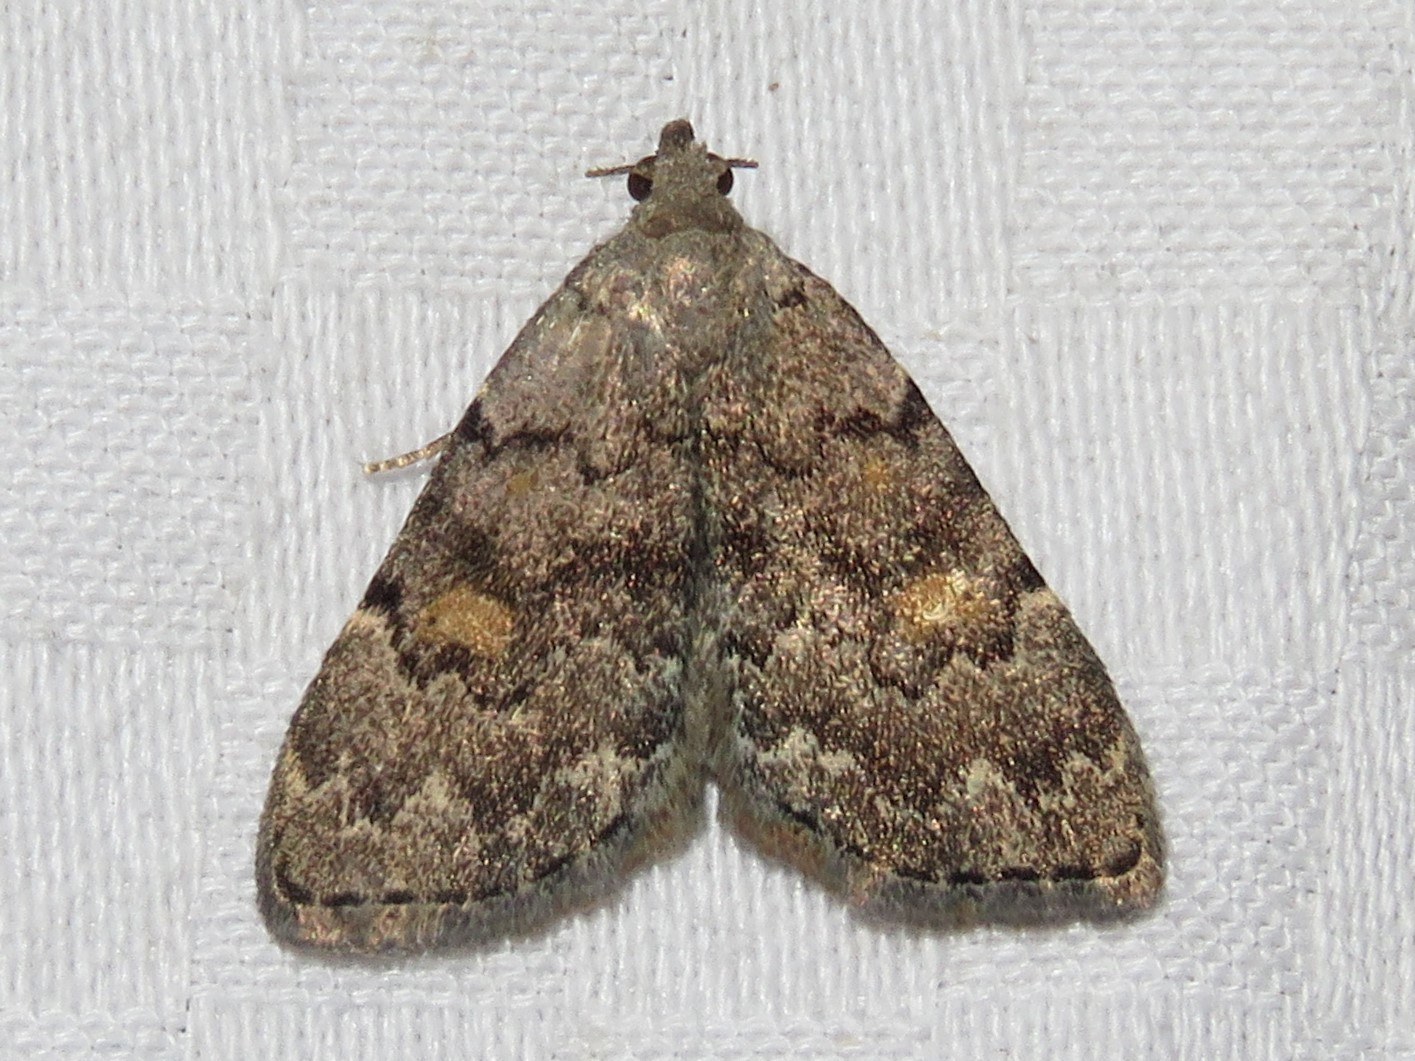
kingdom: Animalia
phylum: Arthropoda
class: Insecta
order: Lepidoptera
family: Erebidae
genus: Idia
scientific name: Idia aemula
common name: Common idia moth
